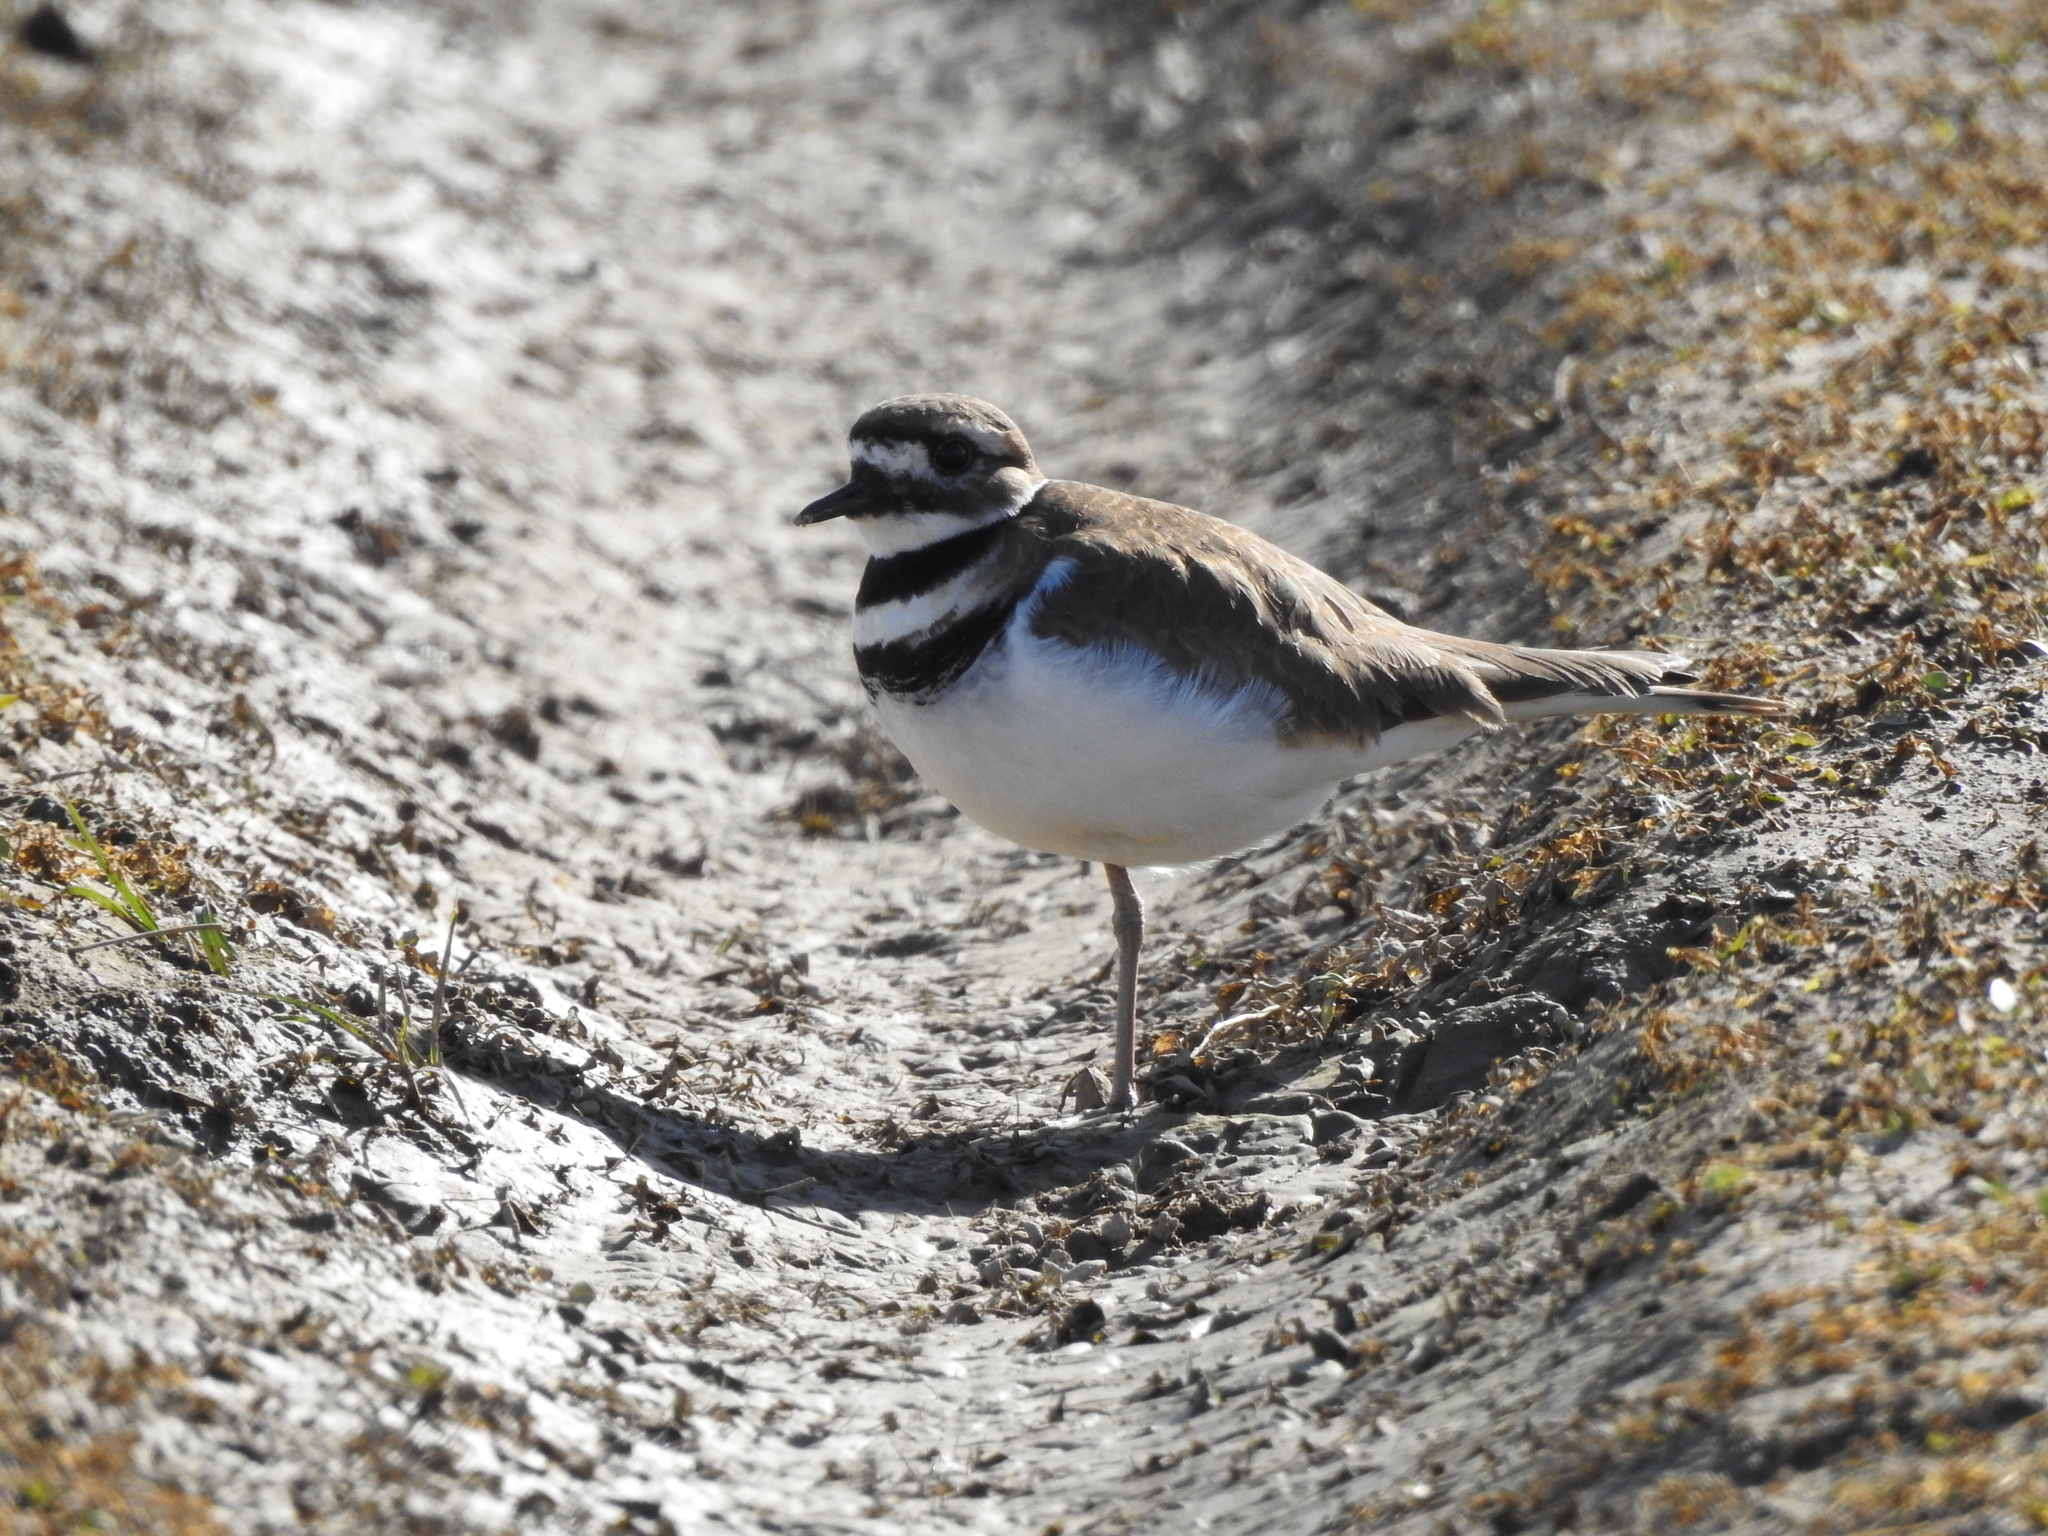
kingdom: Animalia
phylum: Chordata
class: Aves
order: Charadriiformes
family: Charadriidae
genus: Charadrius
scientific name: Charadrius vociferus
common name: Killdeer
